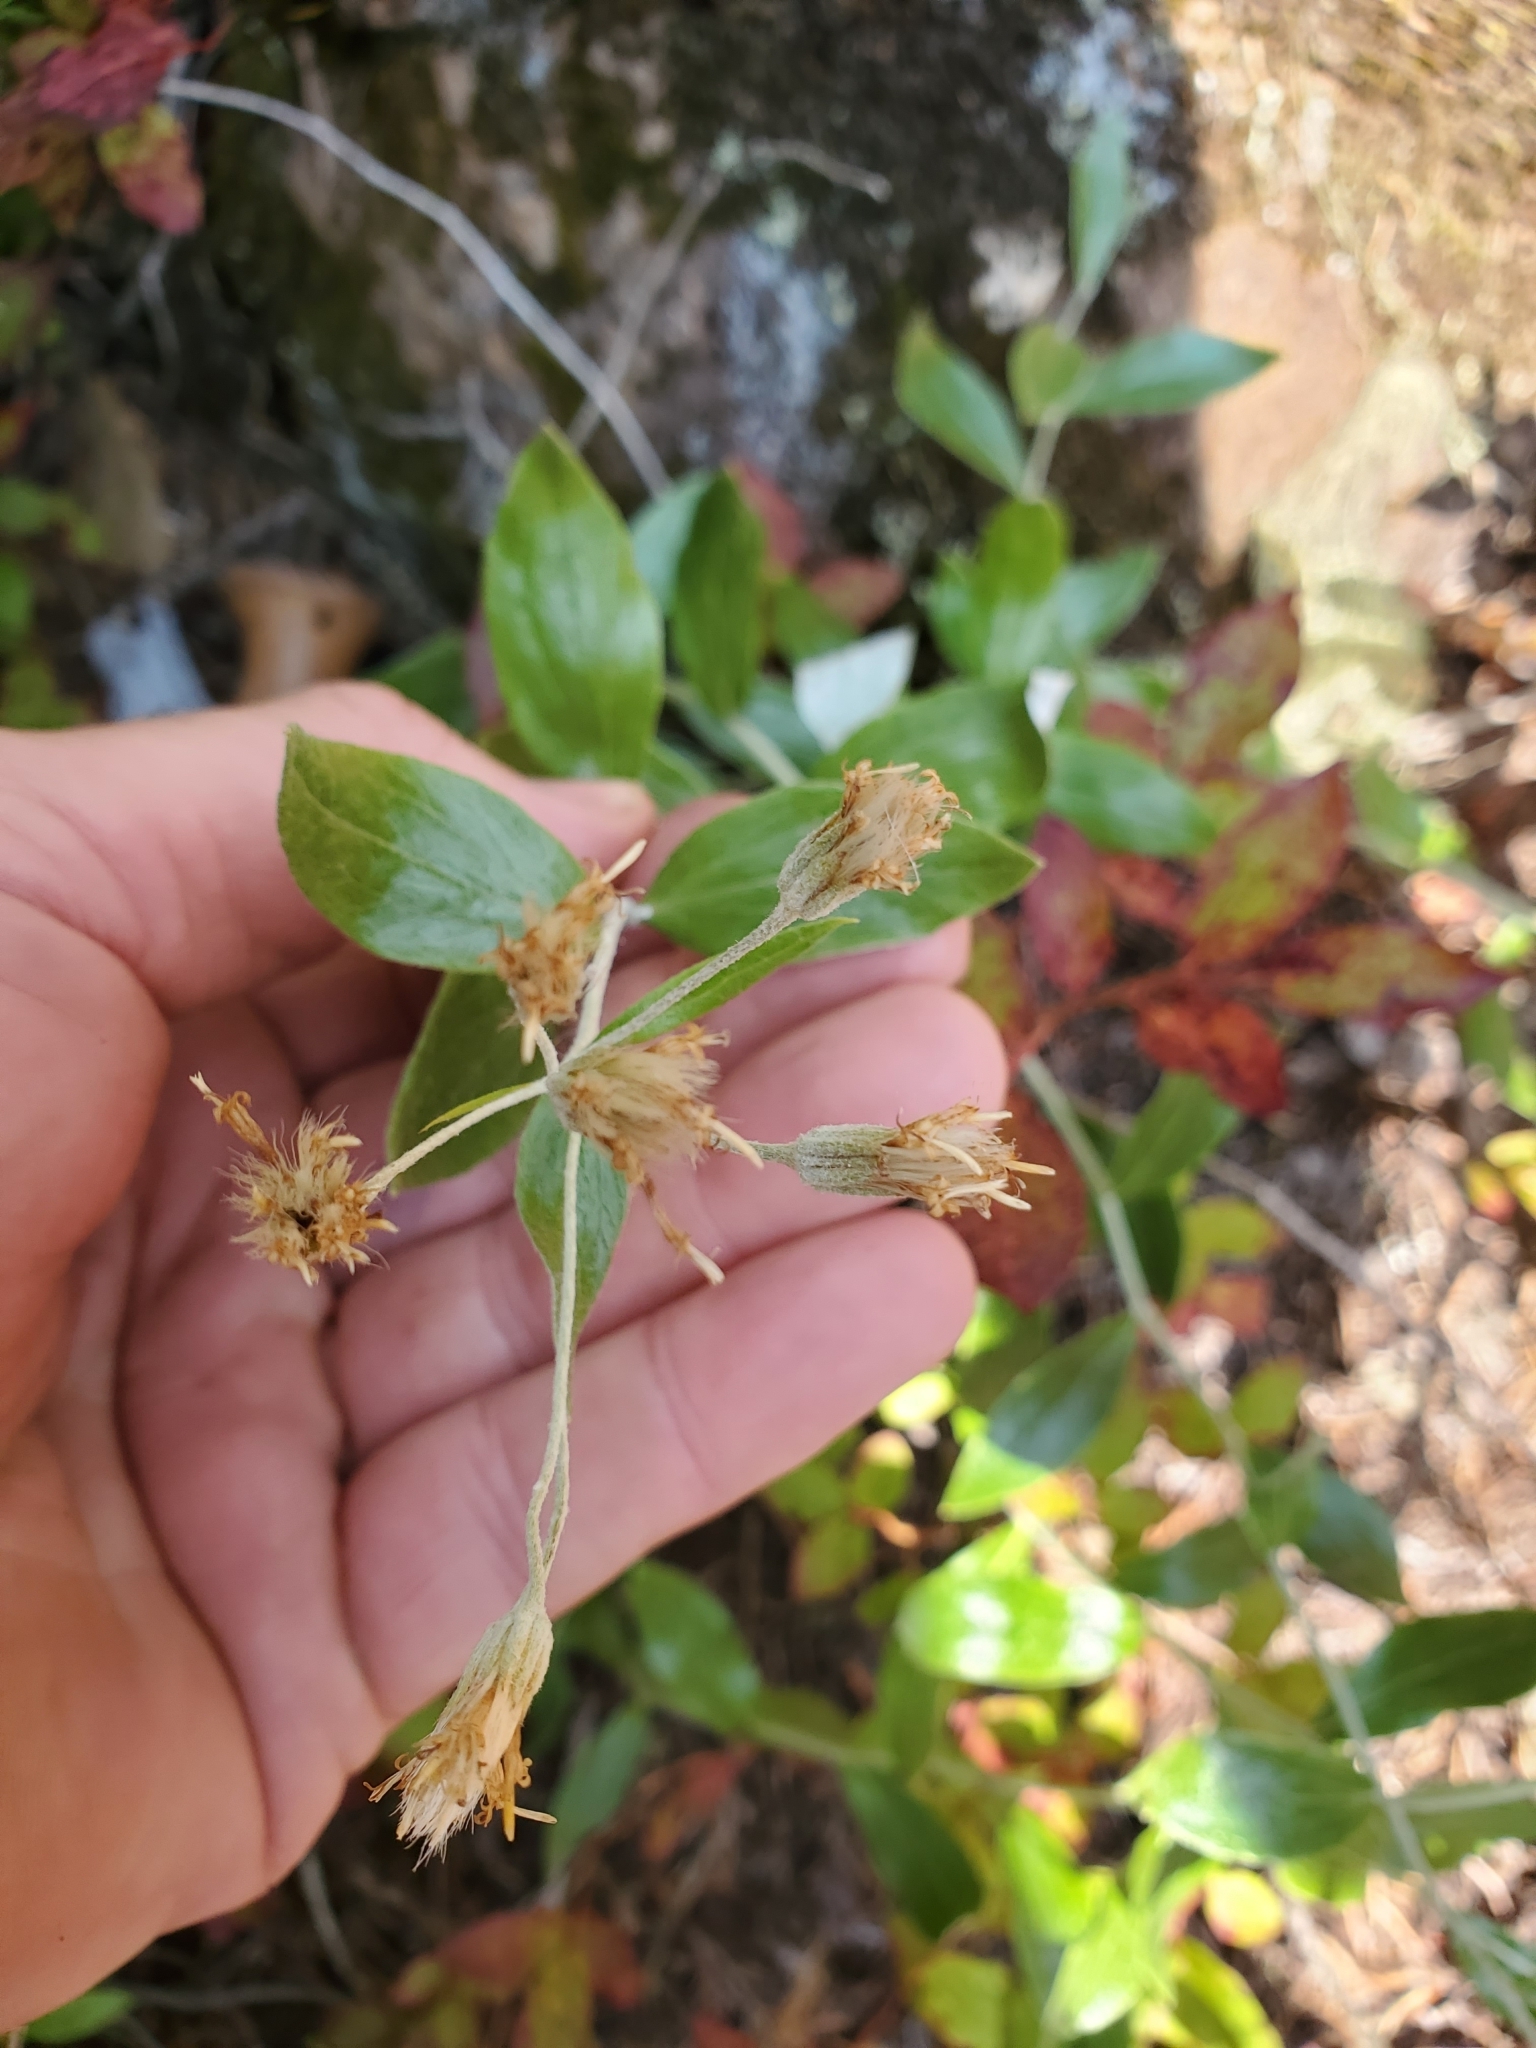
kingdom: Plantae
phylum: Tracheophyta
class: Magnoliopsida
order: Asterales
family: Asteraceae
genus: Luina
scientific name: Luina hypoleuca
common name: Little-leaved luina
